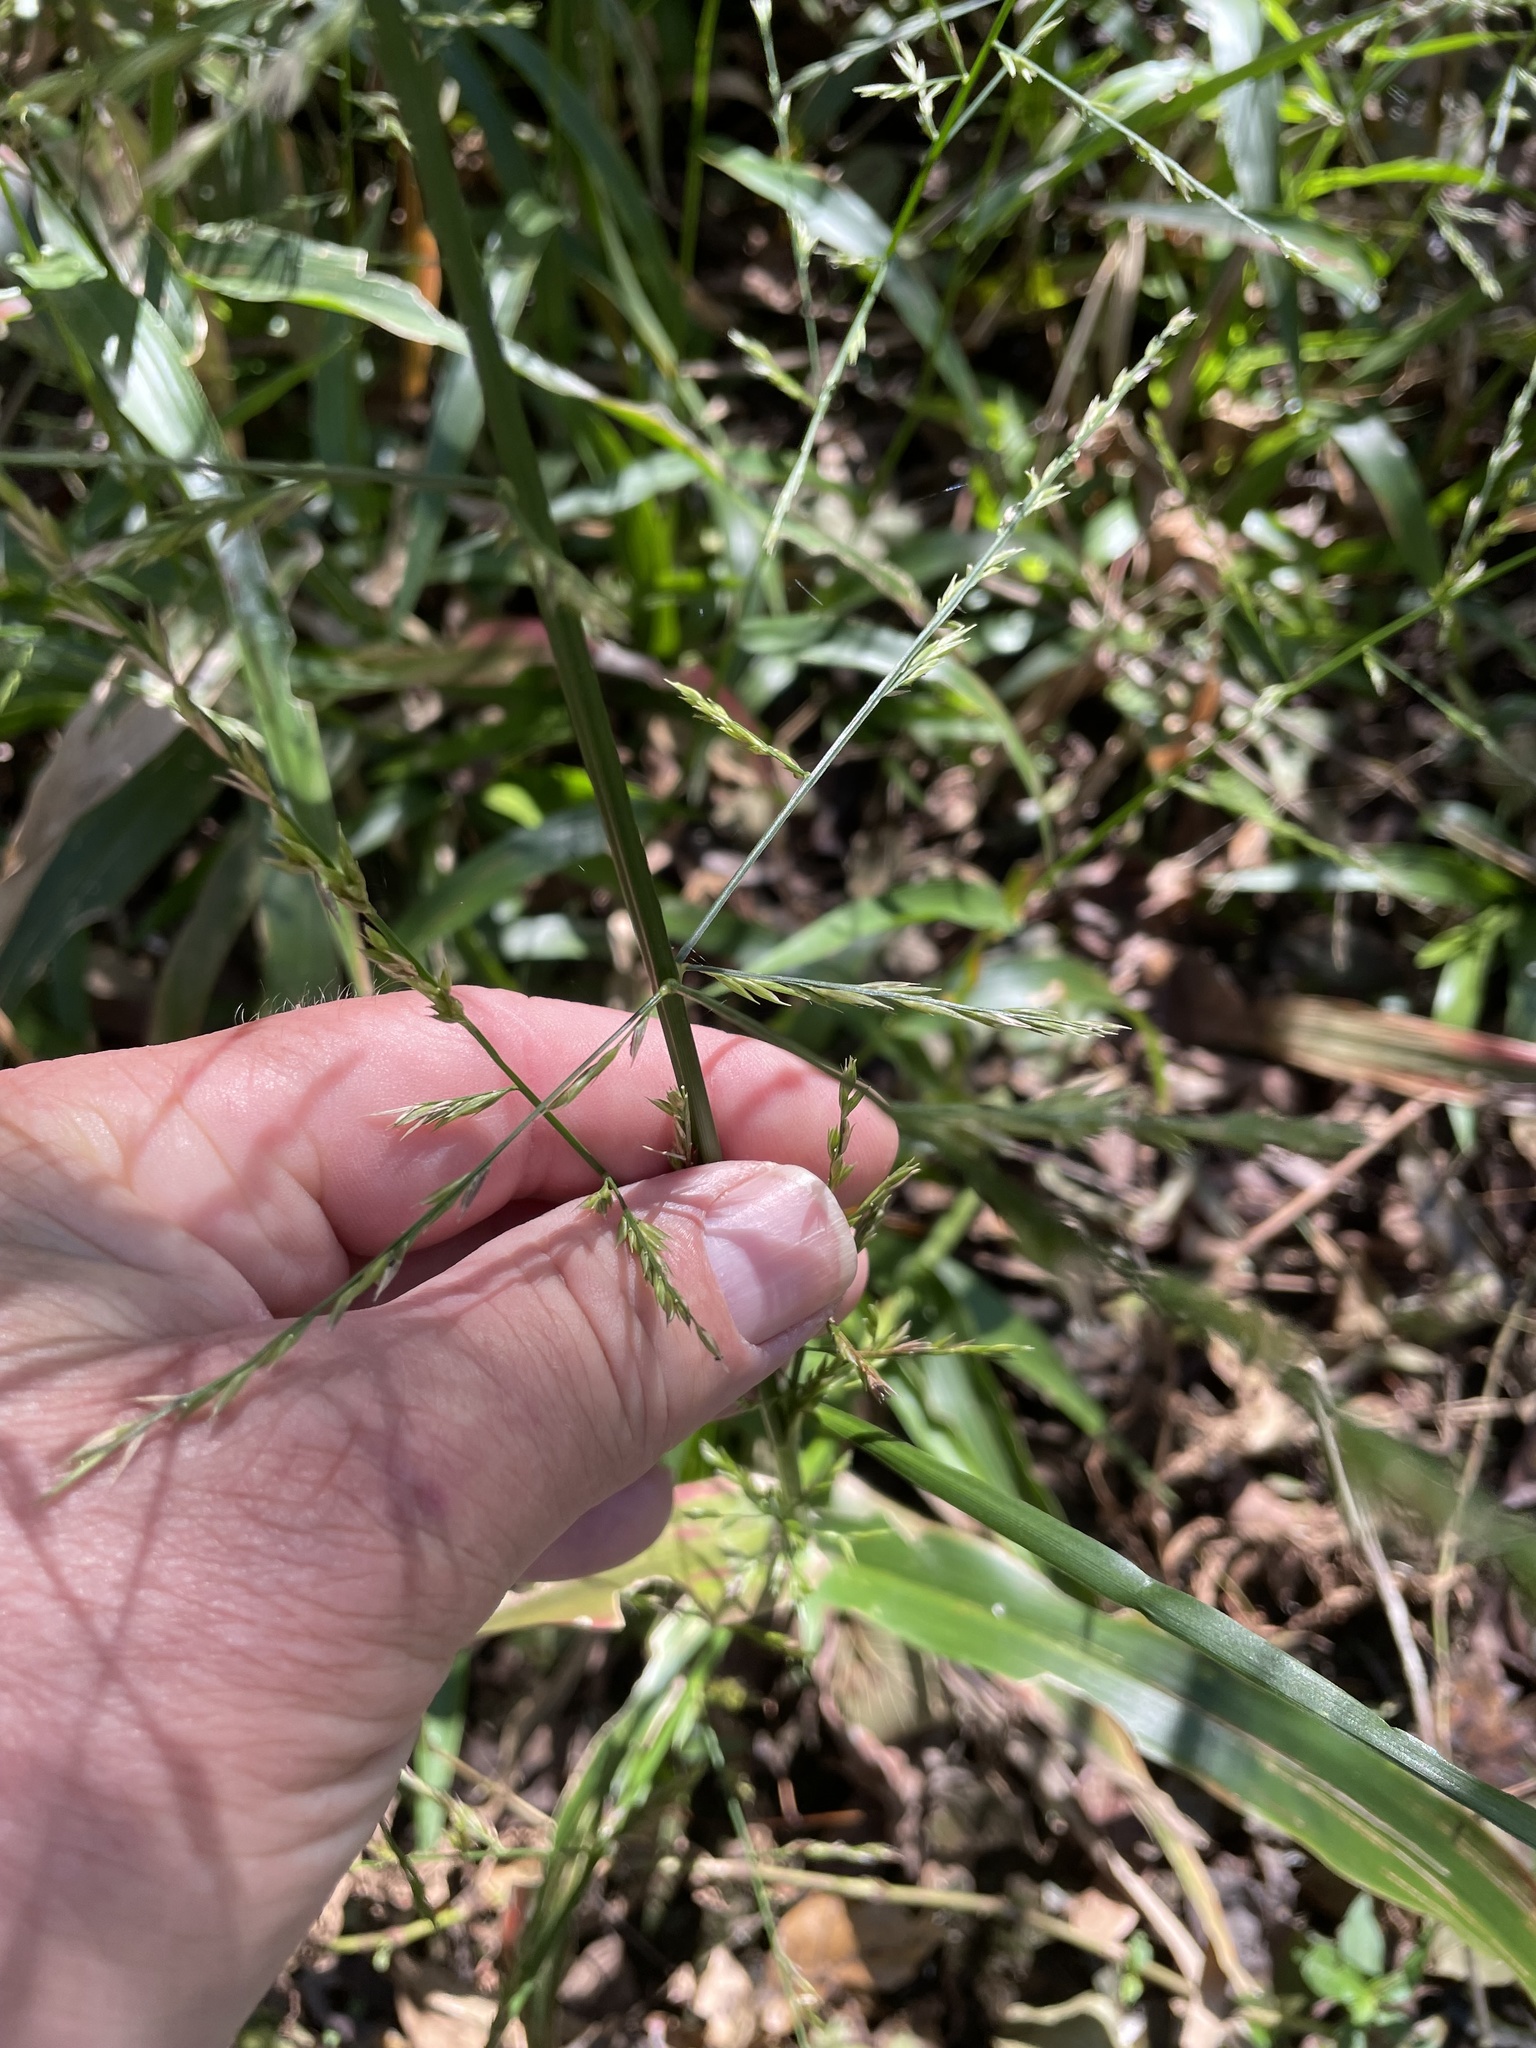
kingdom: Plantae
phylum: Tracheophyta
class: Liliopsida
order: Poales
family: Poaceae
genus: Panicum
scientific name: Panicum gymnocarpon
